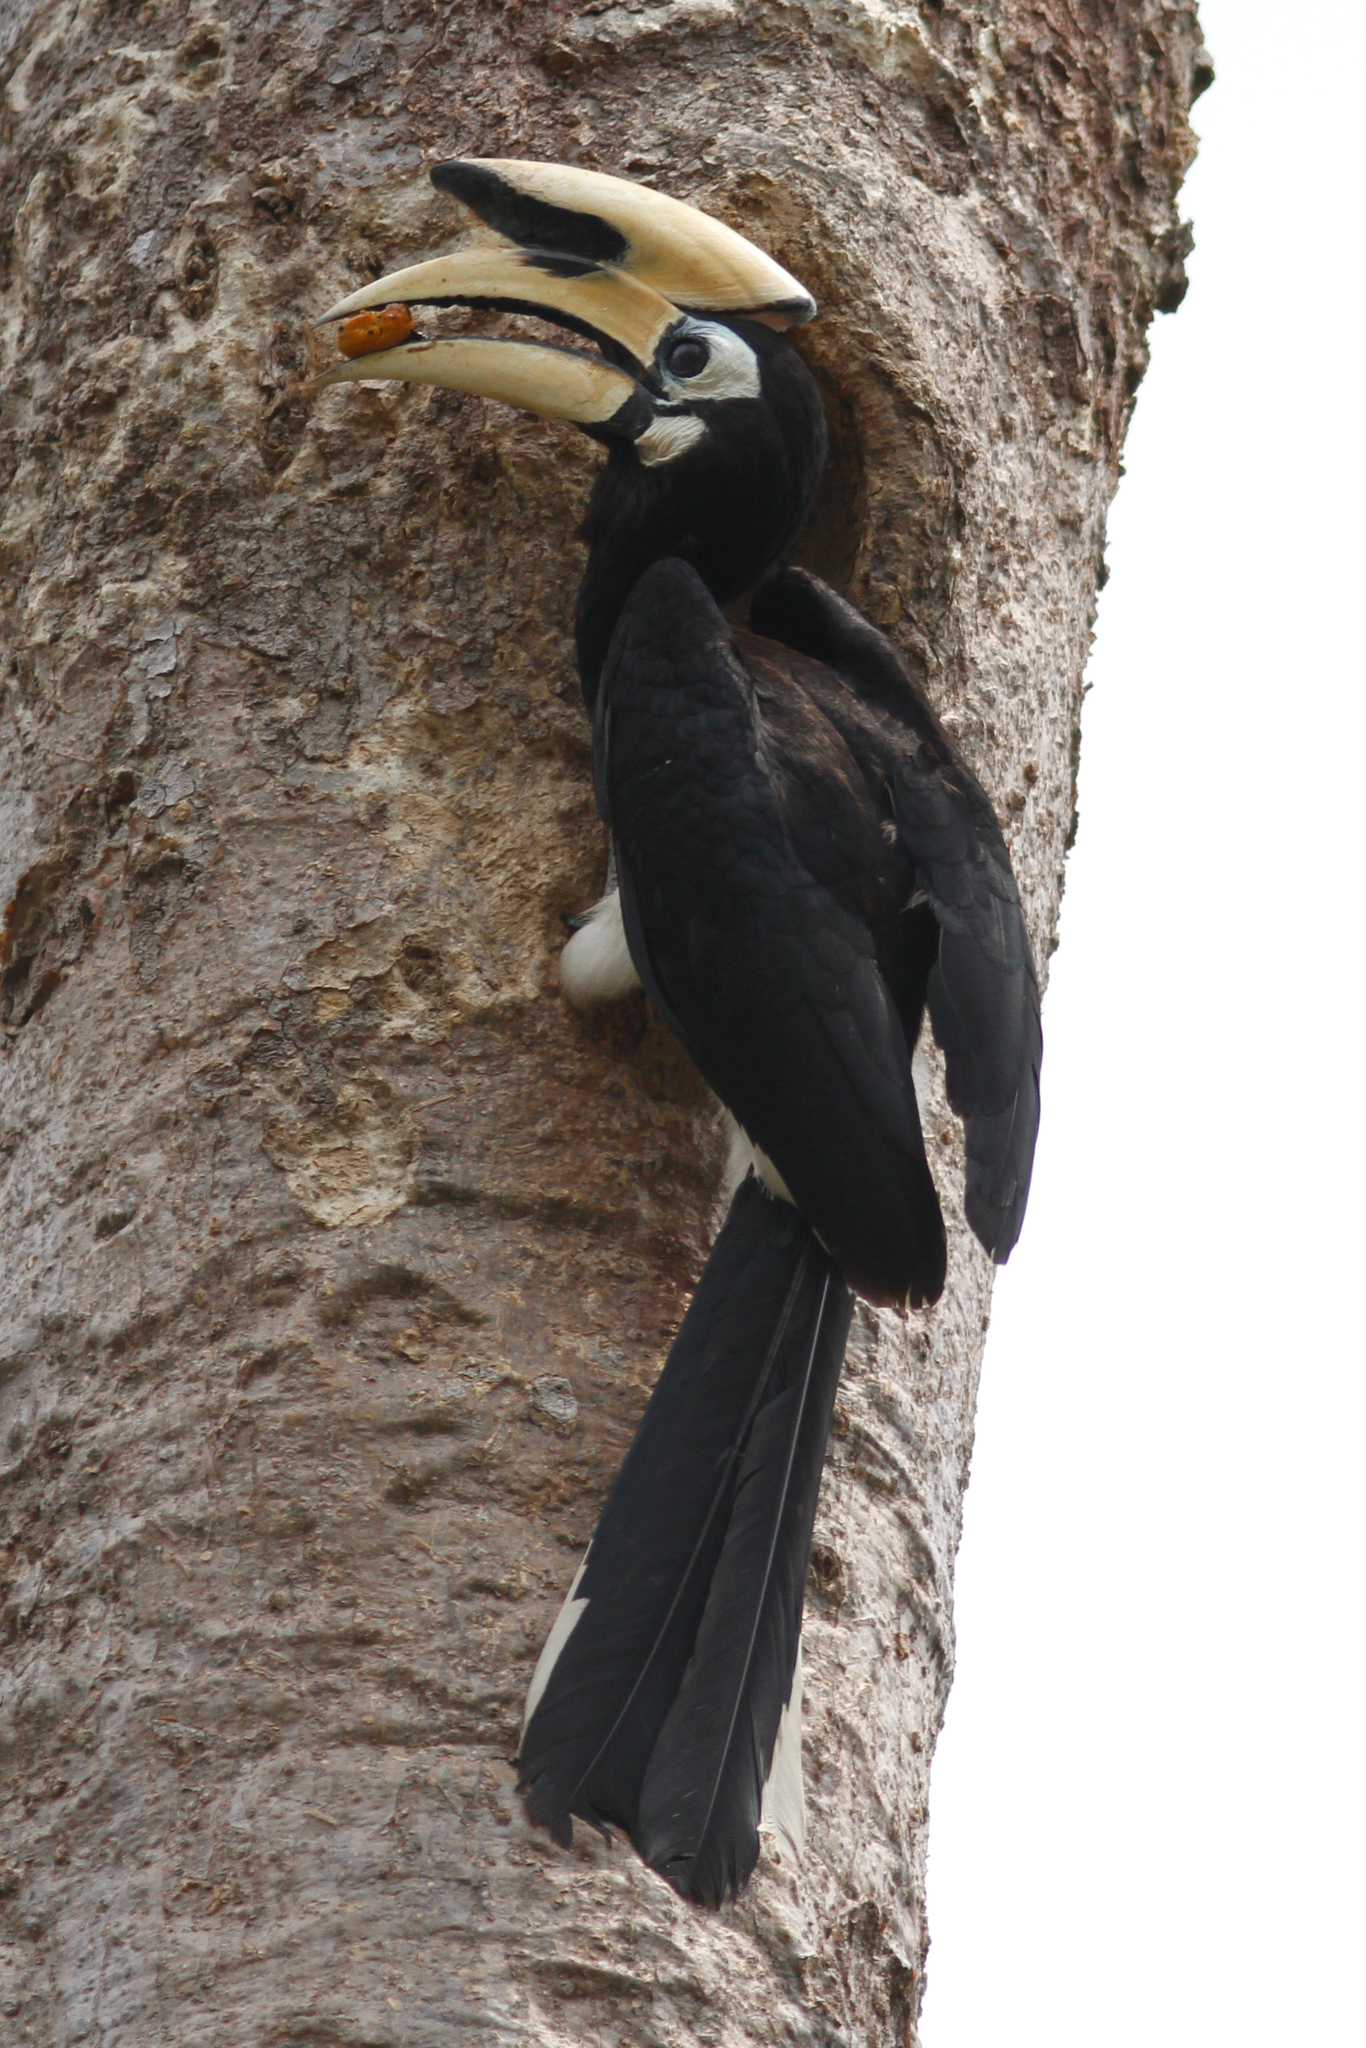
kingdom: Animalia
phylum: Chordata
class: Aves
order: Bucerotiformes
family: Bucerotidae
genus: Anthracoceros
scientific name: Anthracoceros albirostris
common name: Oriental pied-hornbill
